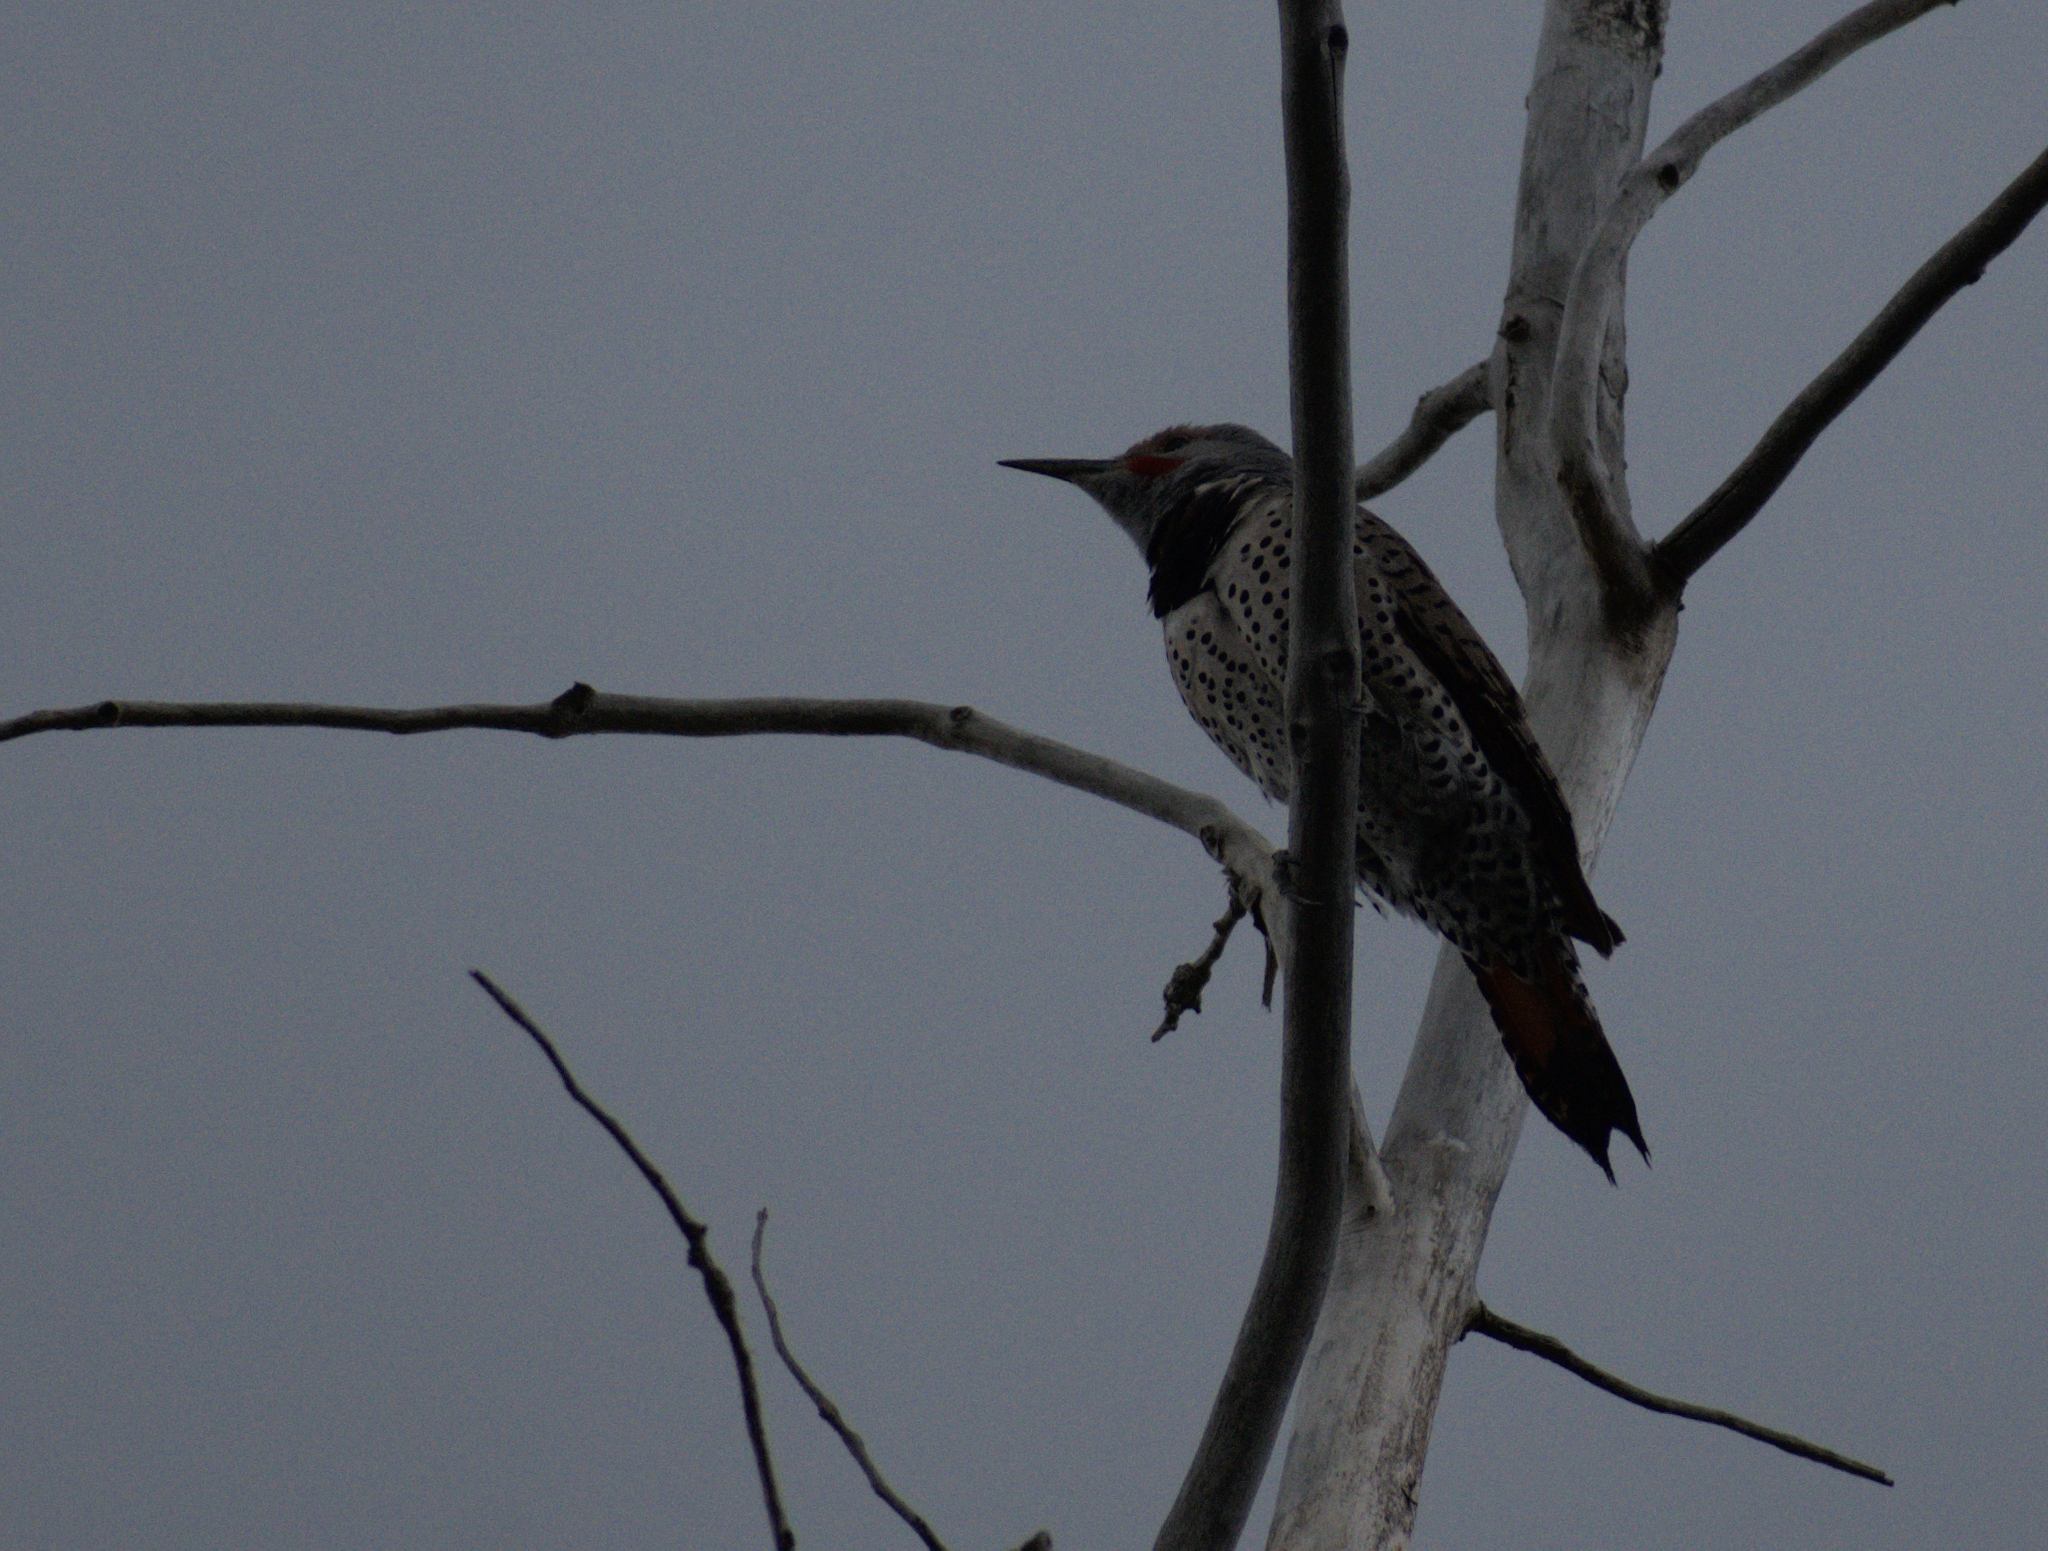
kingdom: Animalia
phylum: Chordata
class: Aves
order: Piciformes
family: Picidae
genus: Colaptes
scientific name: Colaptes auratus
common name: Northern flicker
